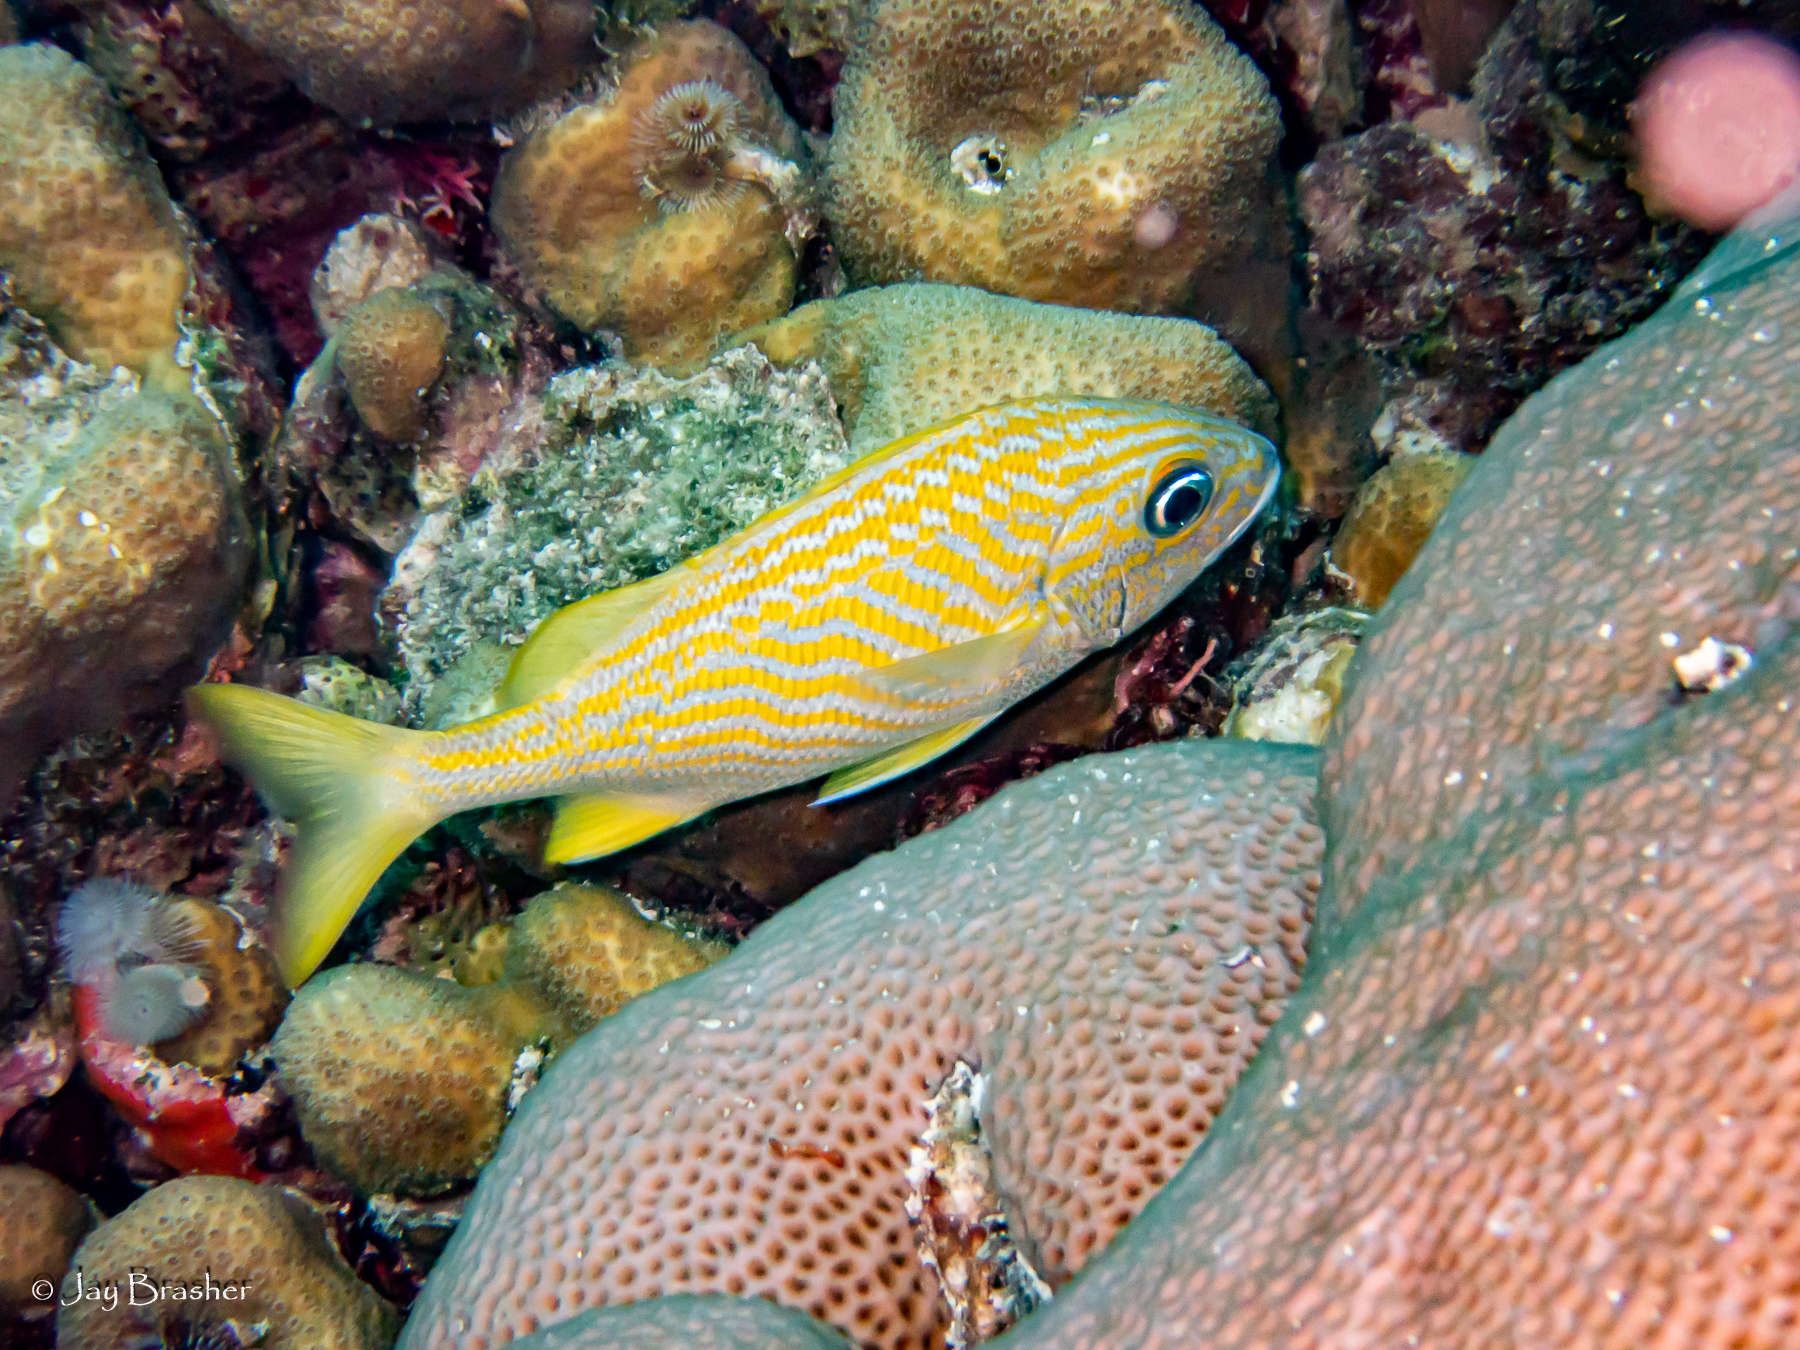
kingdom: Animalia
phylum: Chordata
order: Perciformes
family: Haemulidae
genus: Haemulon
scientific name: Haemulon flavolineatum
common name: French grunt
